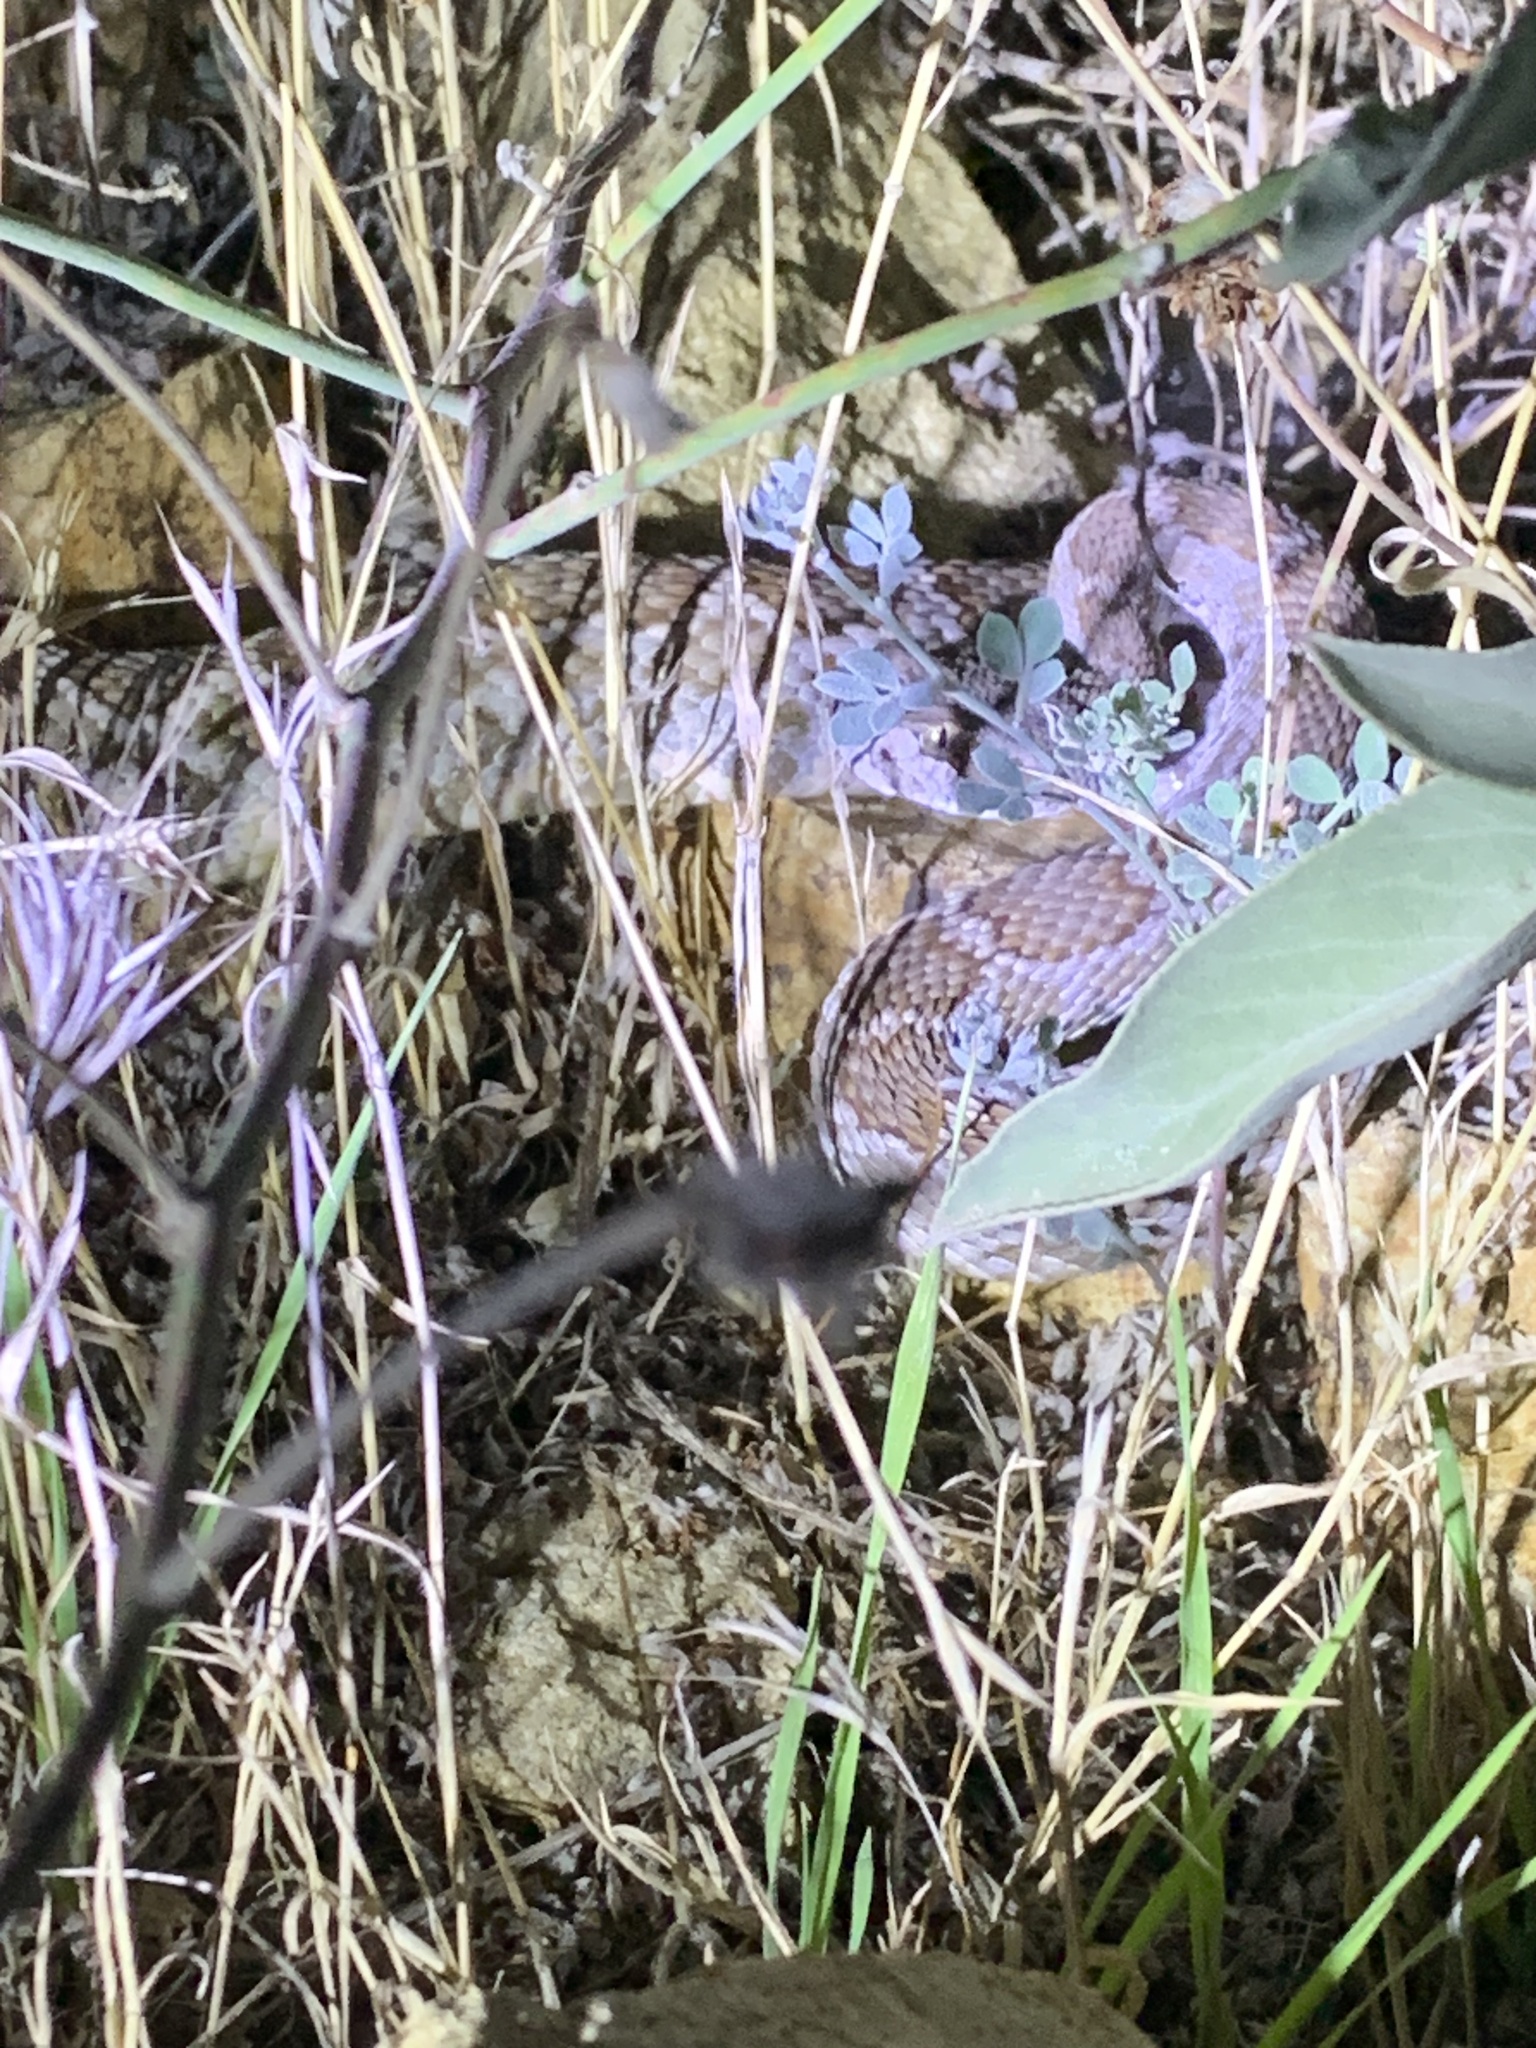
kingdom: Animalia
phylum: Chordata
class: Squamata
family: Viperidae
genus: Crotalus
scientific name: Crotalus oreganus
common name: Abyssus
